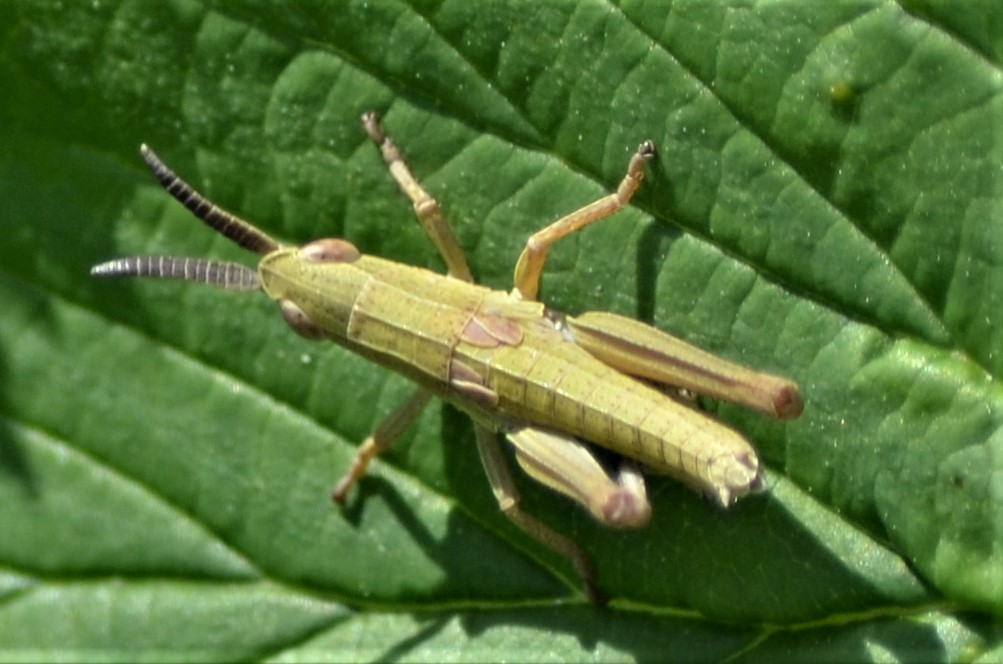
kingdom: Animalia
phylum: Arthropoda
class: Insecta
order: Orthoptera
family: Acrididae
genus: Euthystira
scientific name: Euthystira brachyptera
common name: Small gold grasshopper
